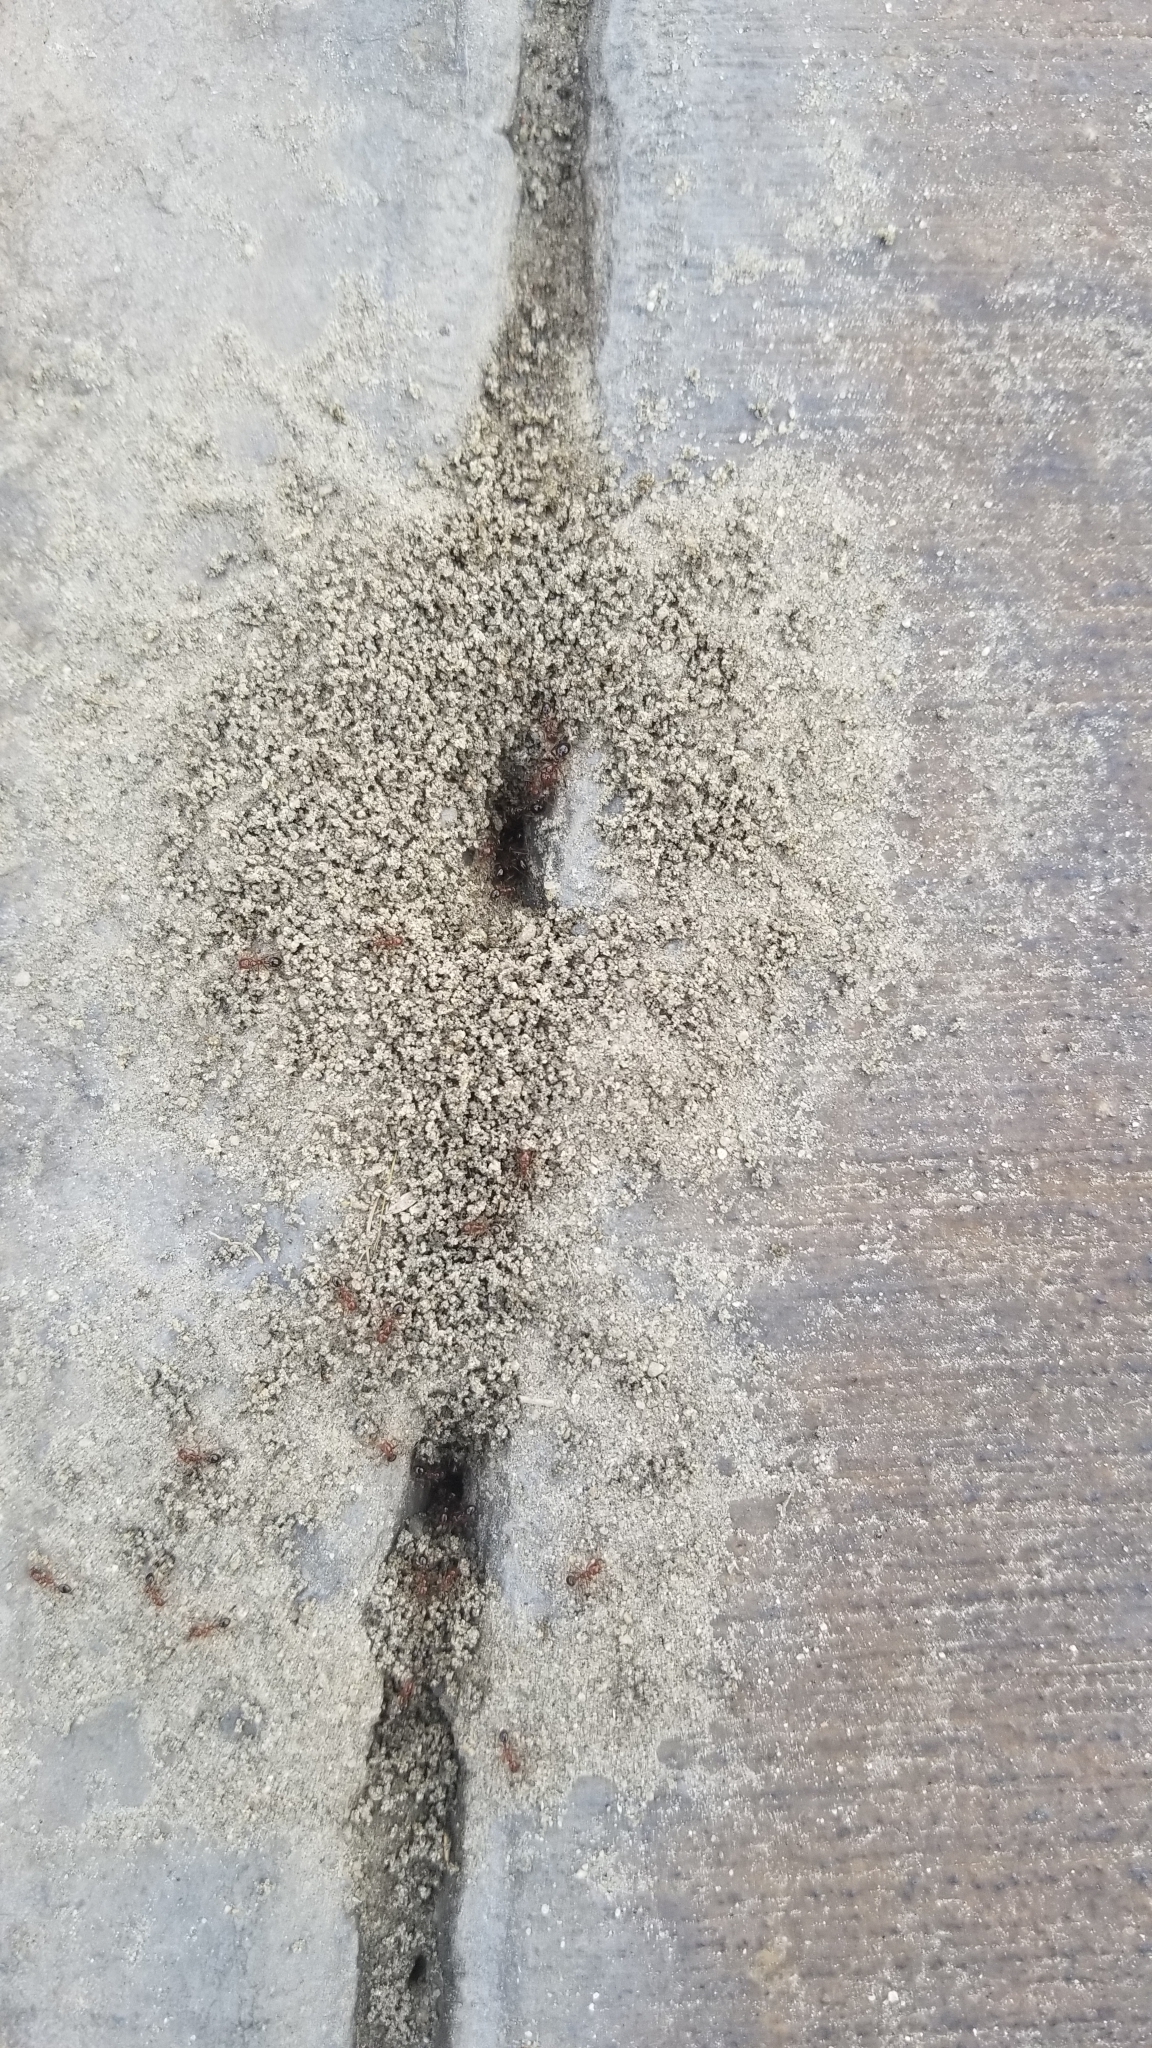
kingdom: Animalia
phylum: Arthropoda
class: Insecta
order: Hymenoptera
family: Formicidae
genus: Solenopsis
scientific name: Solenopsis xyloni
